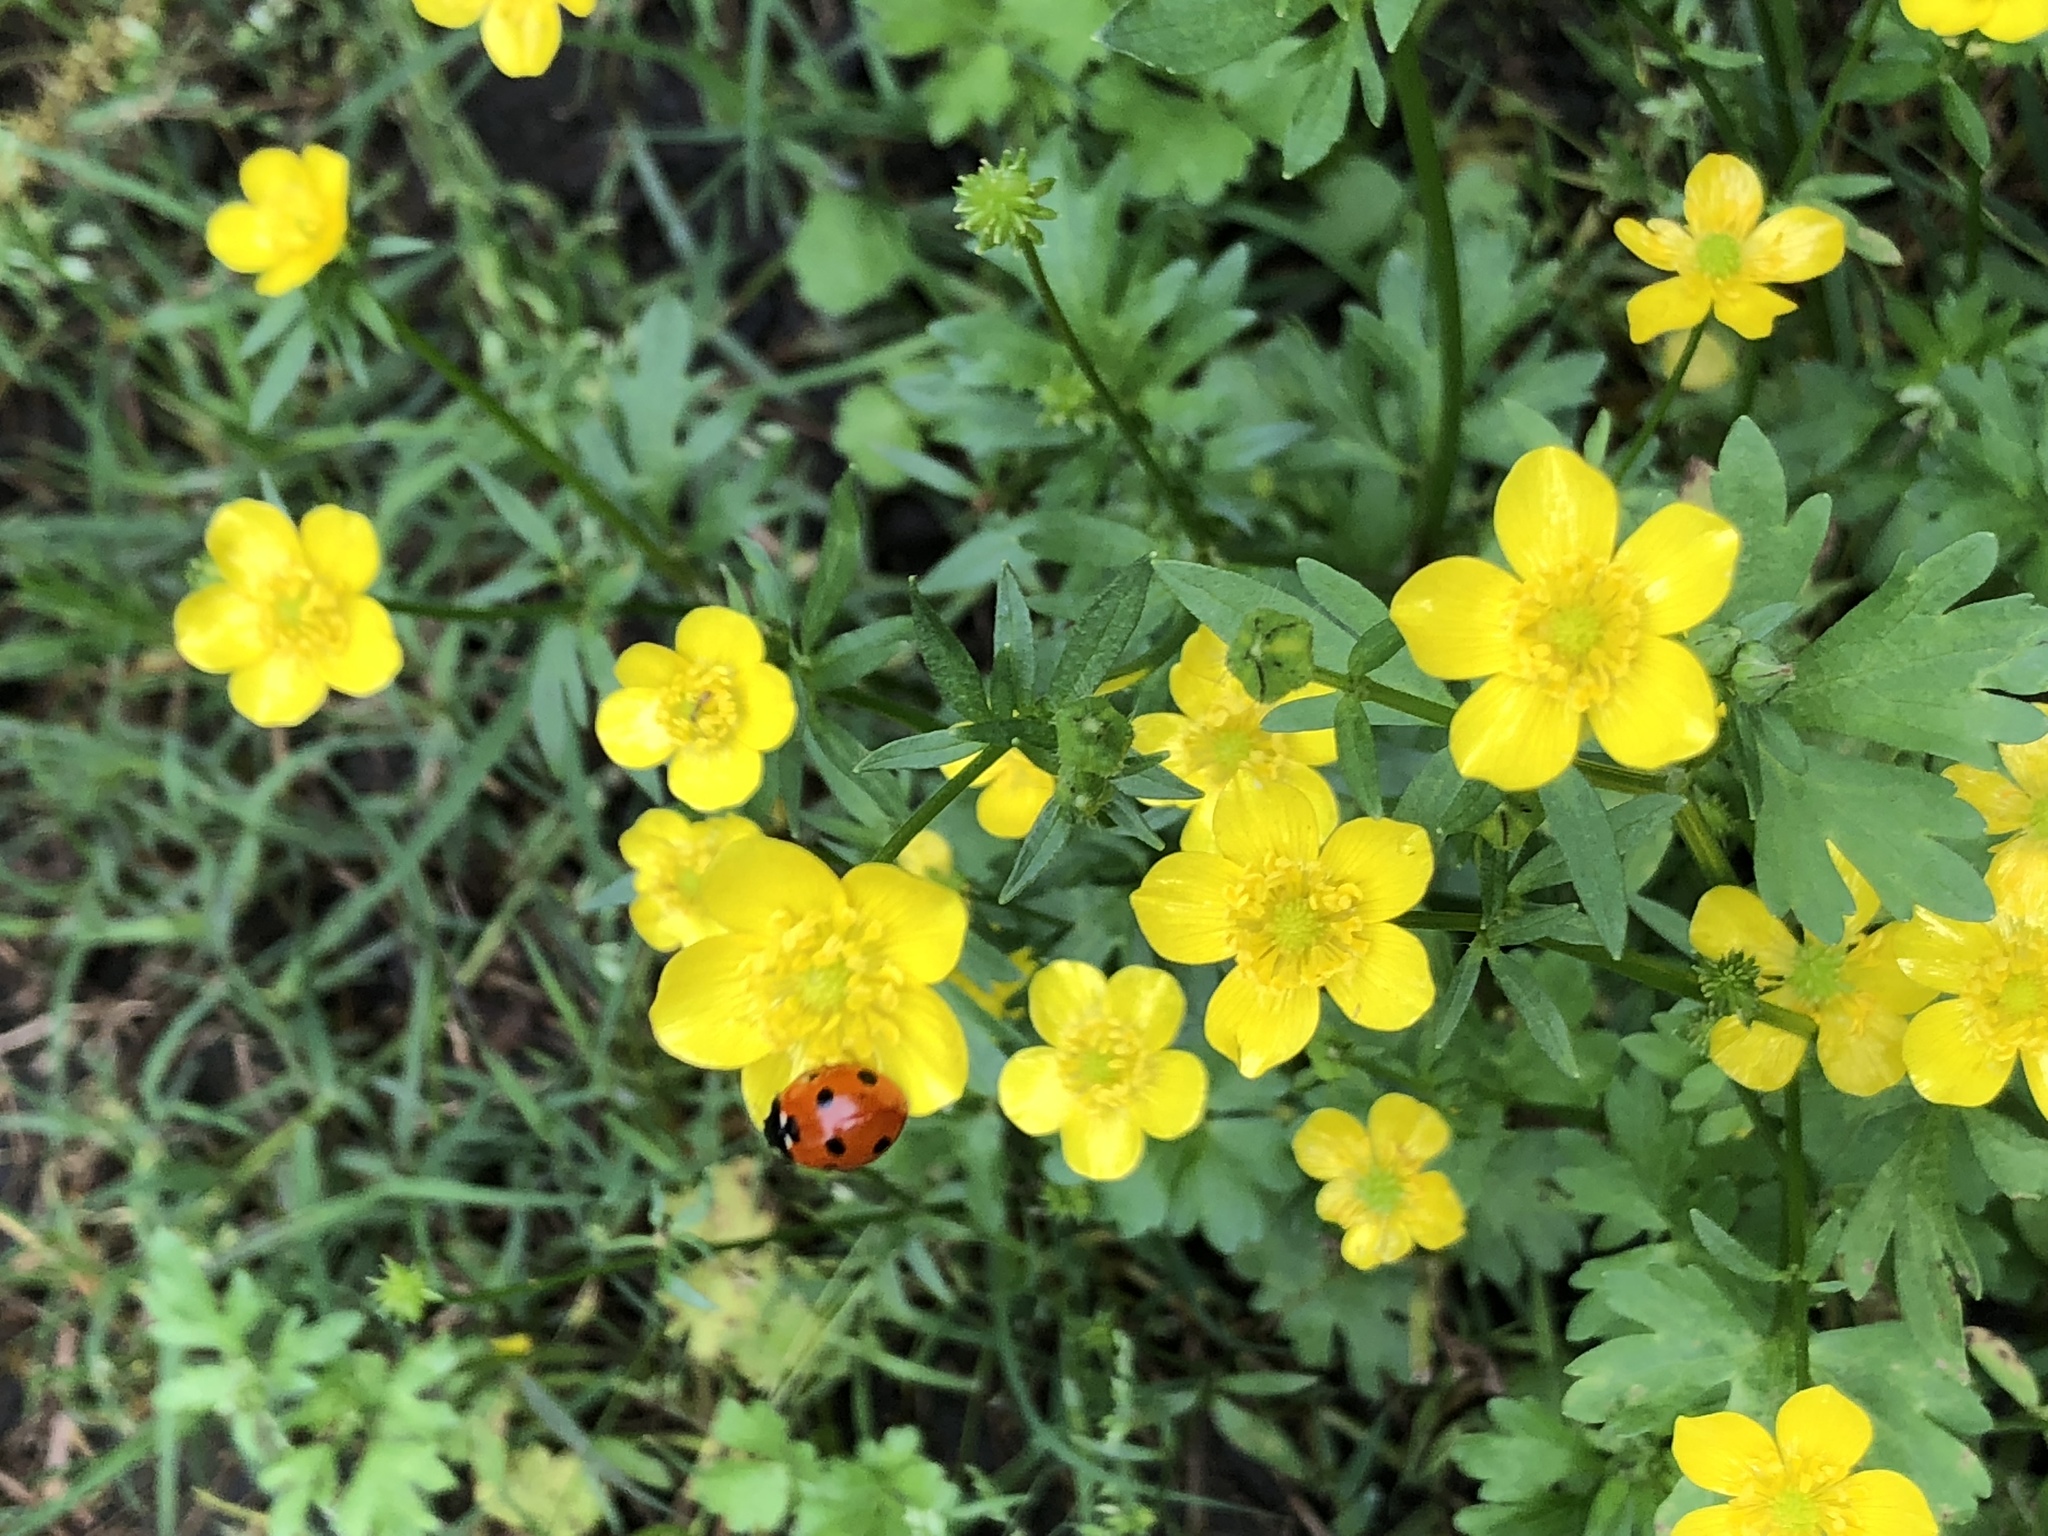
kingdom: Animalia
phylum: Arthropoda
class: Insecta
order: Coleoptera
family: Coccinellidae
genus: Coccinella
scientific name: Coccinella septempunctata
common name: Sevenspotted lady beetle
